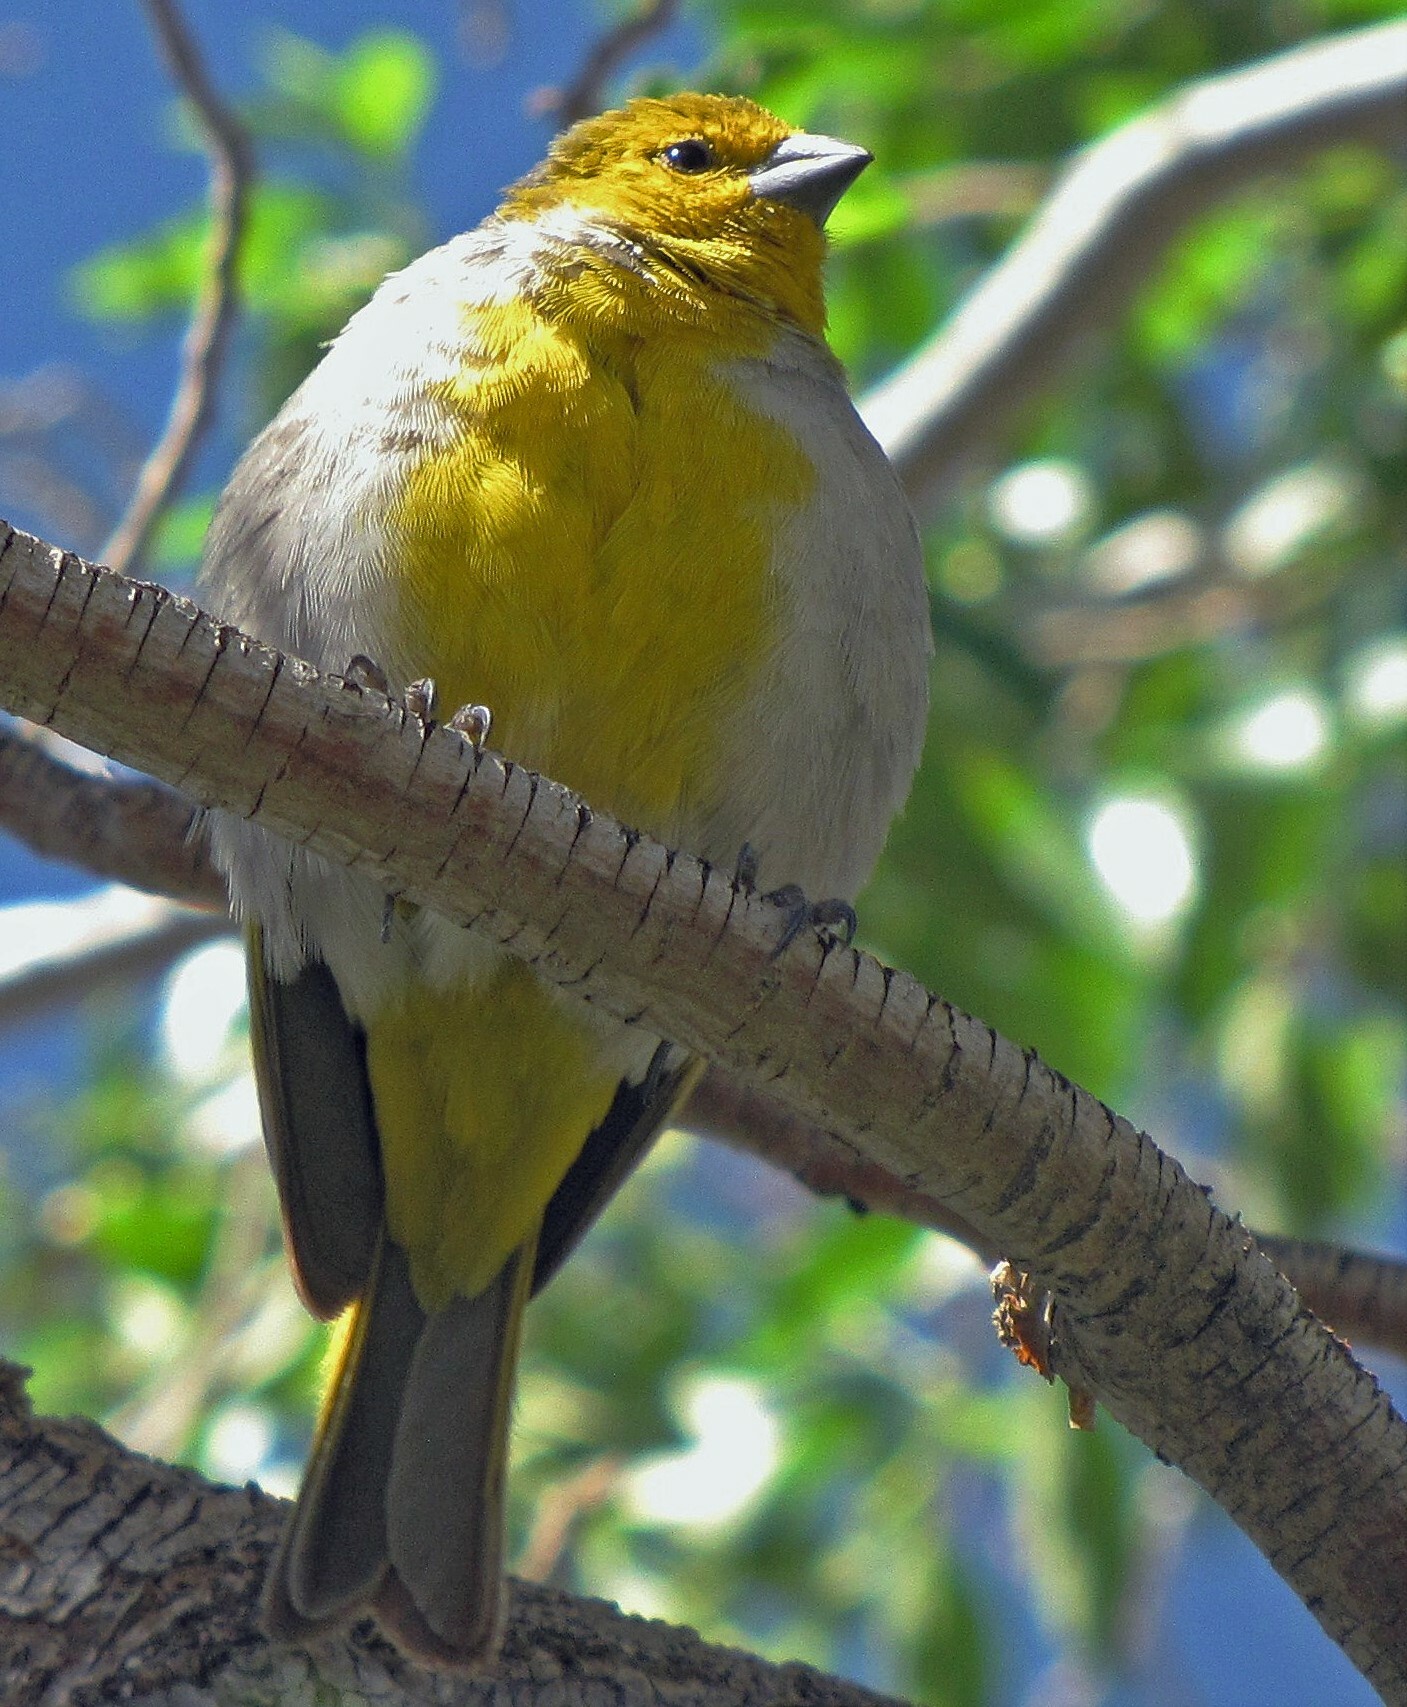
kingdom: Animalia
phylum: Chordata
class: Aves
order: Passeriformes
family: Thraupidae
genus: Sicalis
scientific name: Sicalis luteocephala
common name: Citron-headed yellow finch
